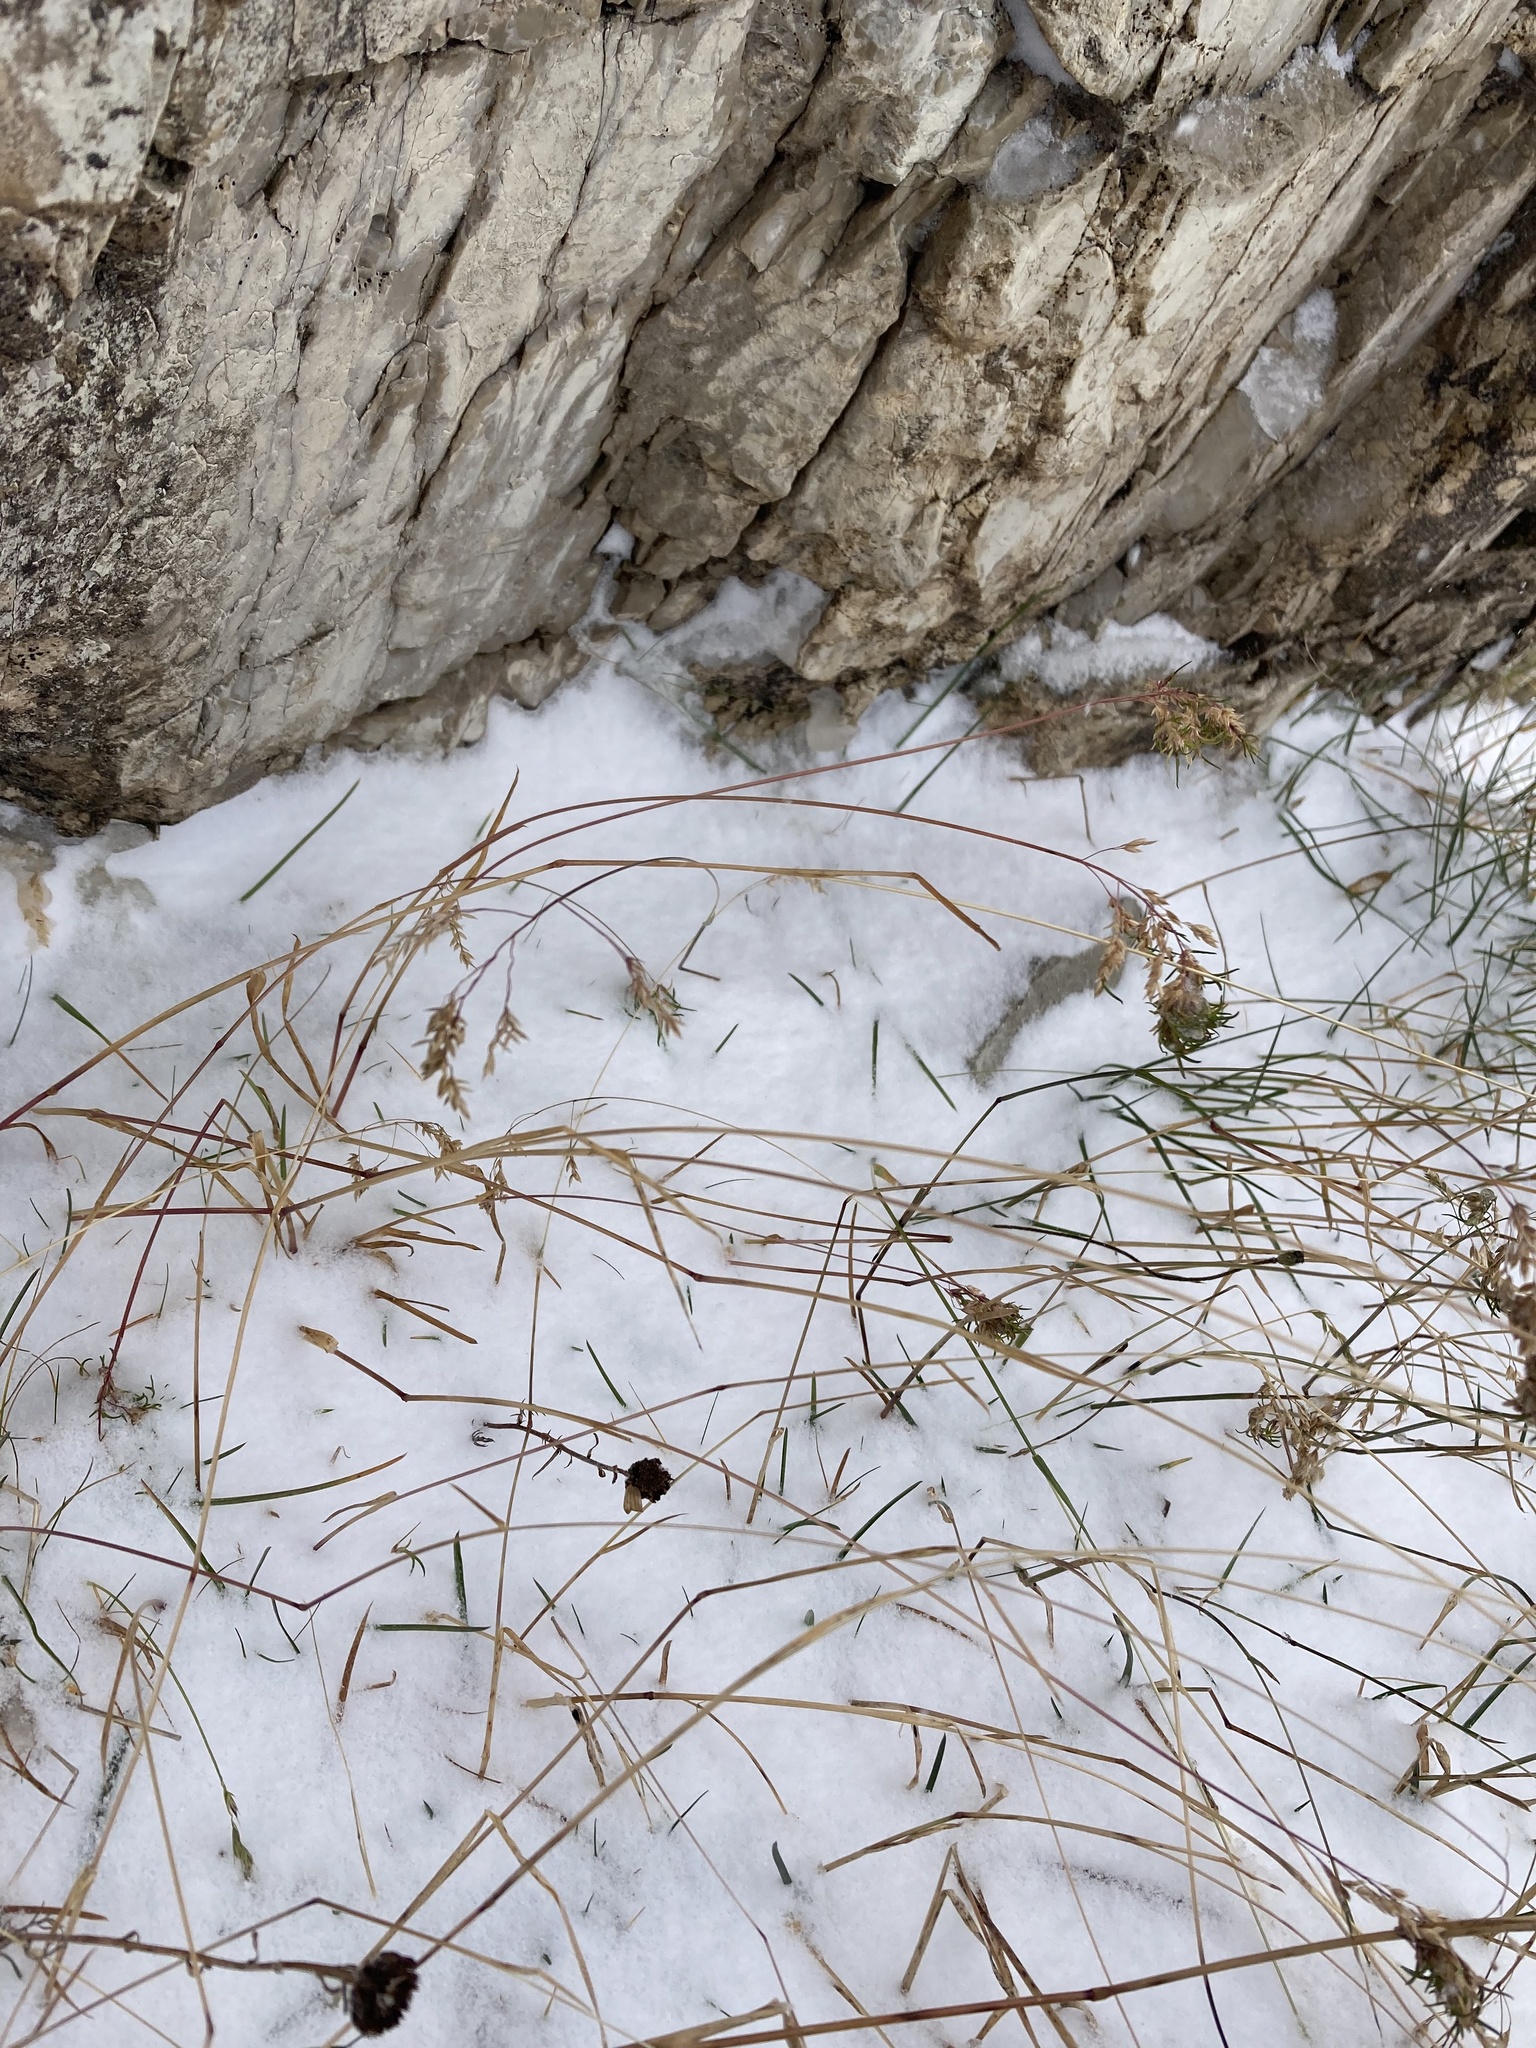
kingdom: Plantae
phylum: Tracheophyta
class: Liliopsida
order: Poales
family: Poaceae
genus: Poa
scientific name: Poa alpina
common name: Alpine bluegrass
